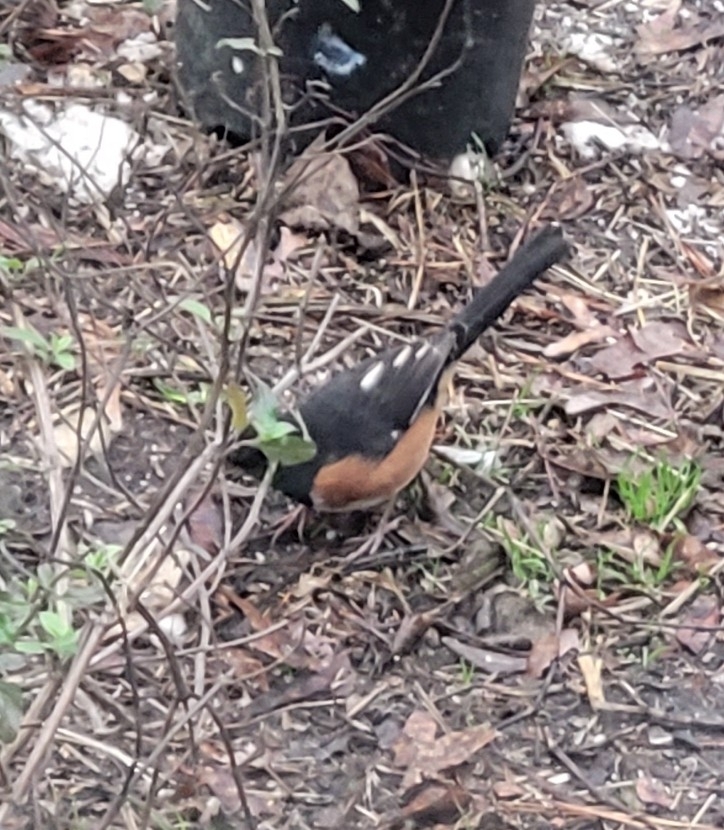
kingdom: Animalia
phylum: Chordata
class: Aves
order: Passeriformes
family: Passerellidae
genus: Pipilo
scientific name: Pipilo erythrophthalmus
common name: Eastern towhee
